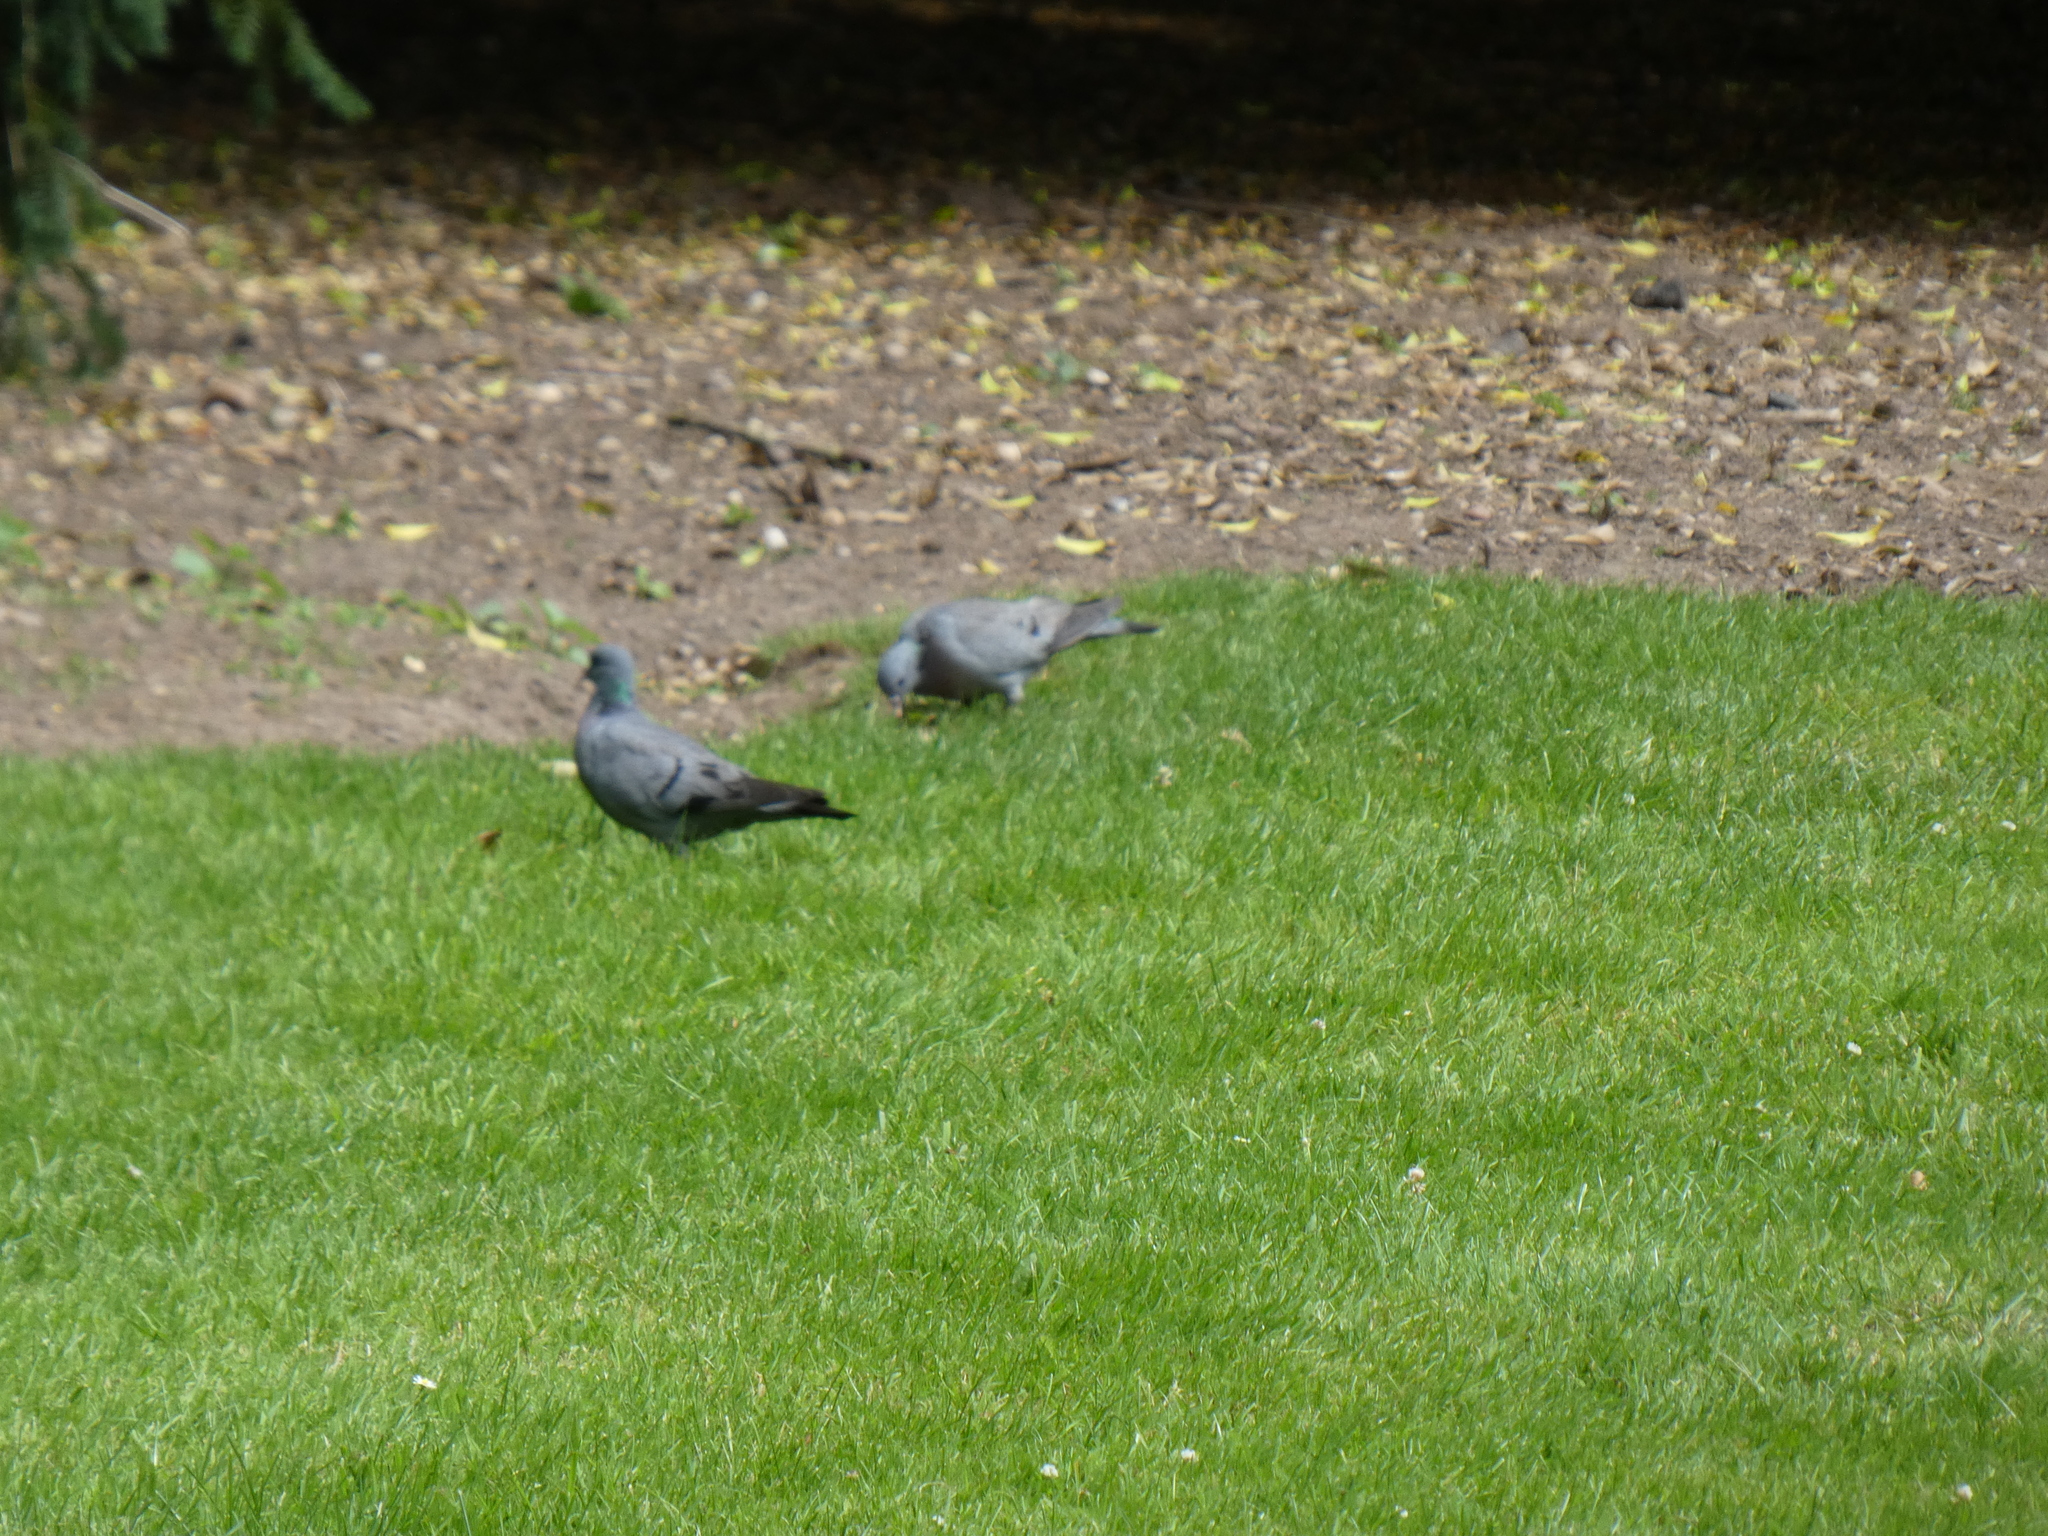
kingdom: Animalia
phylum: Chordata
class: Aves
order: Columbiformes
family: Columbidae
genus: Columba
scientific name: Columba oenas
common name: Stock dove
